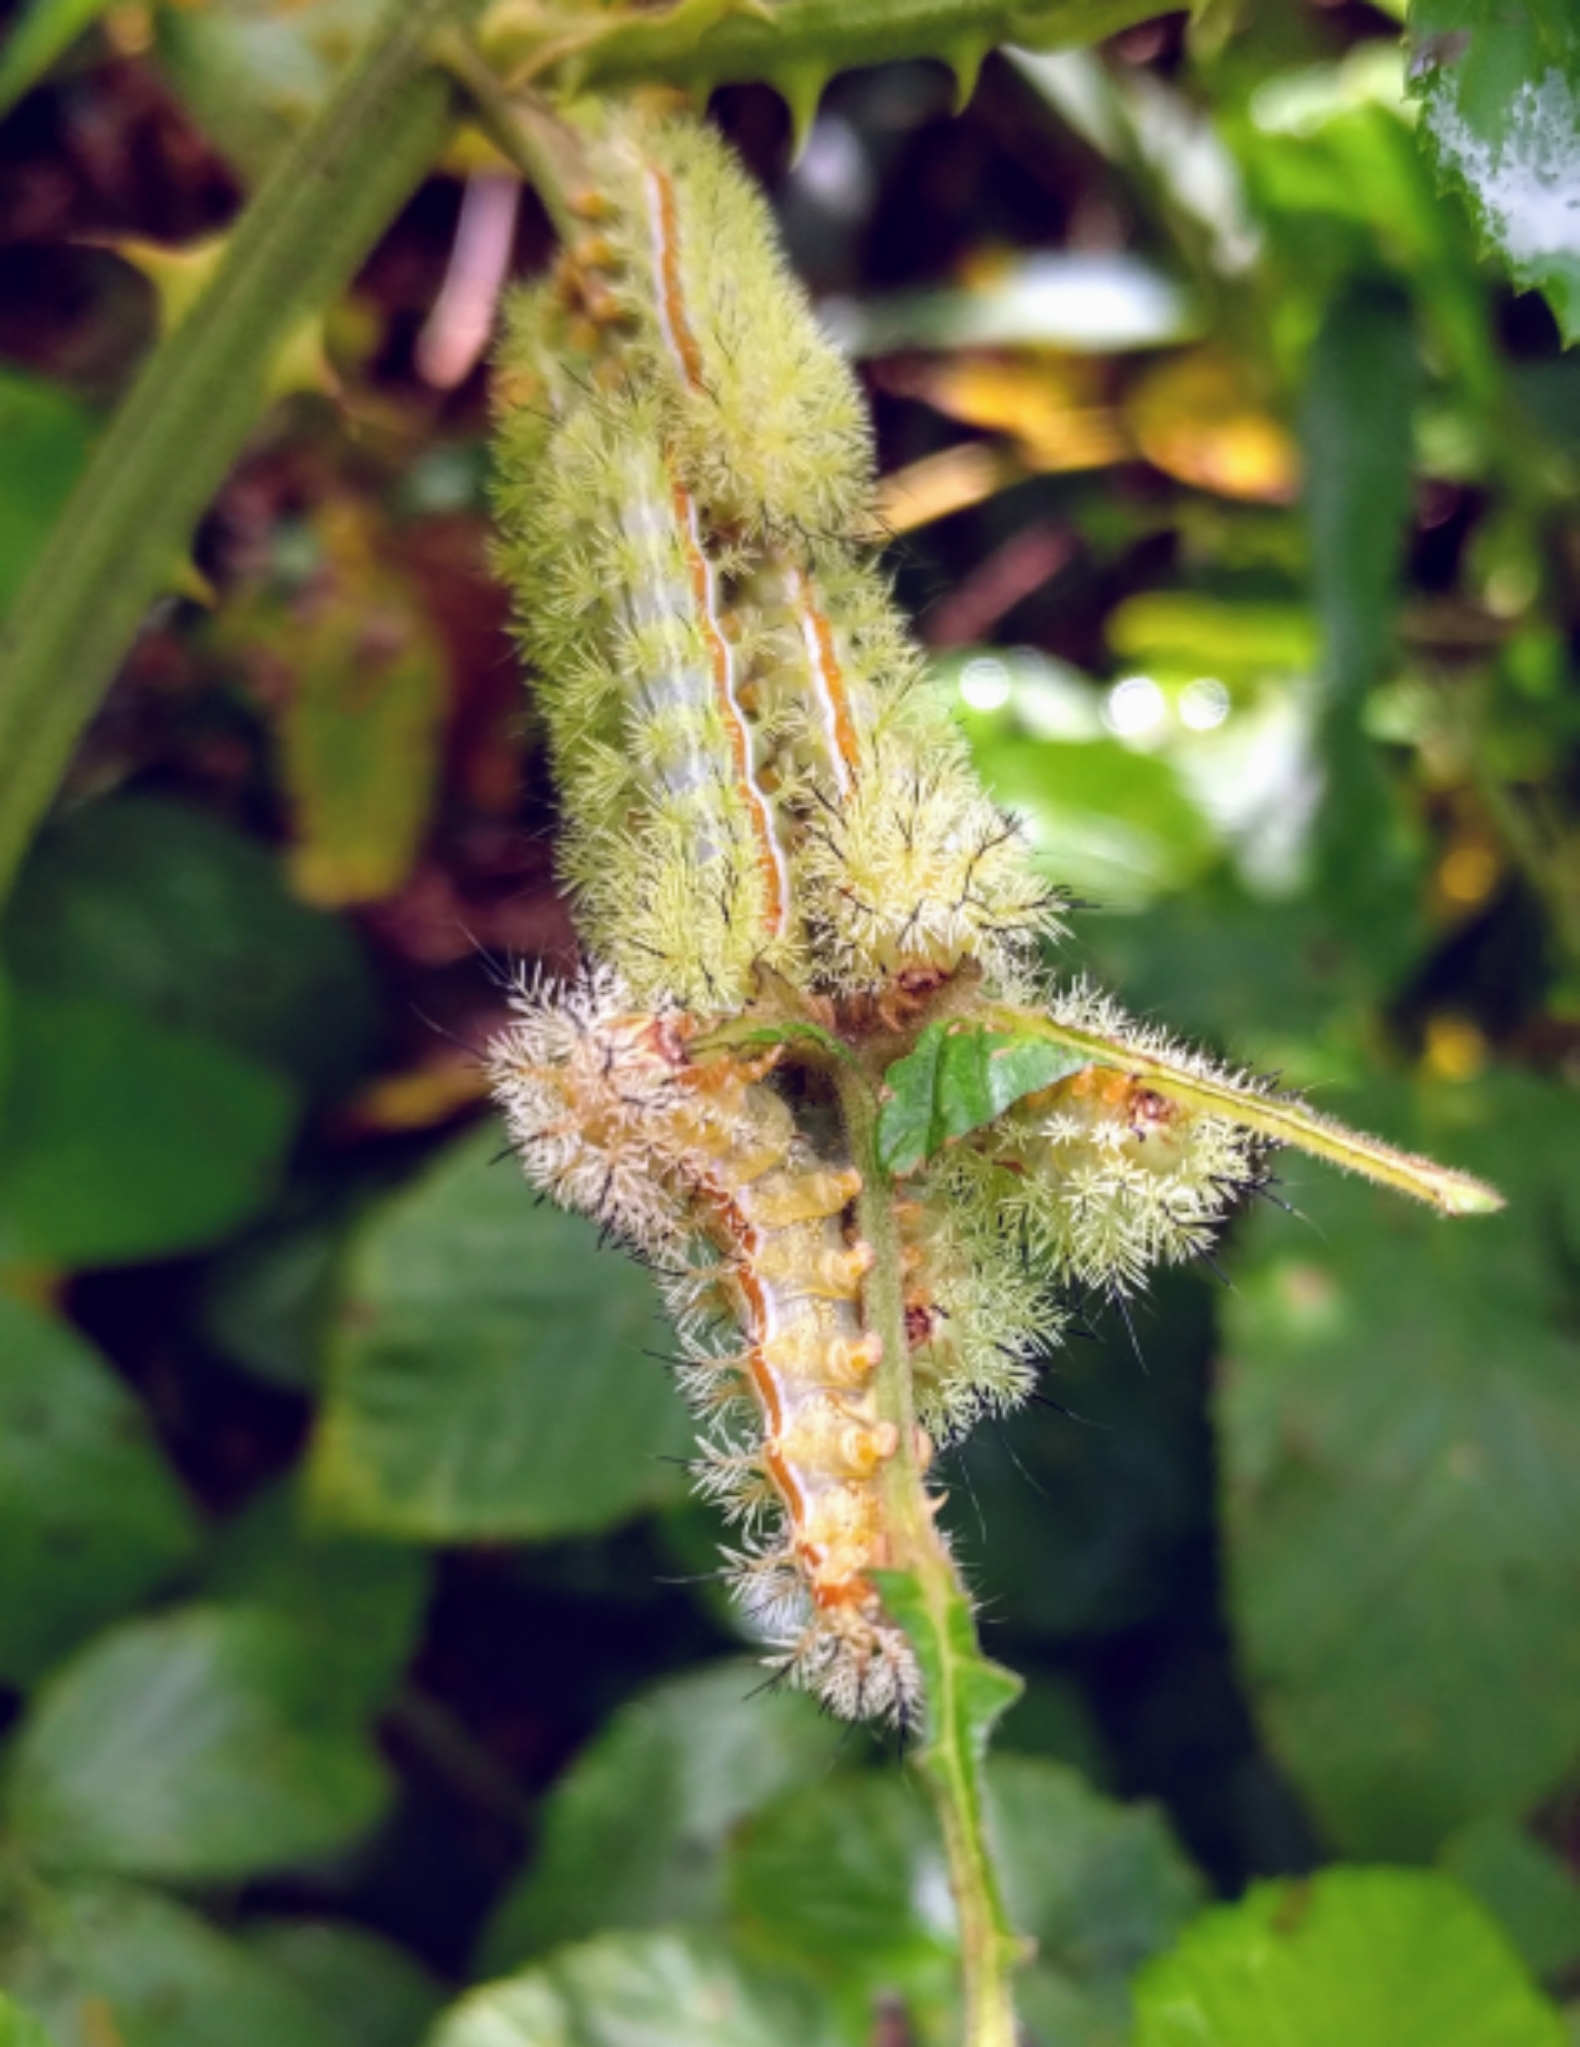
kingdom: Animalia
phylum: Arthropoda
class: Insecta
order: Lepidoptera
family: Saturniidae
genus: Automeris
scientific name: Automeris io
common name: Io moth
